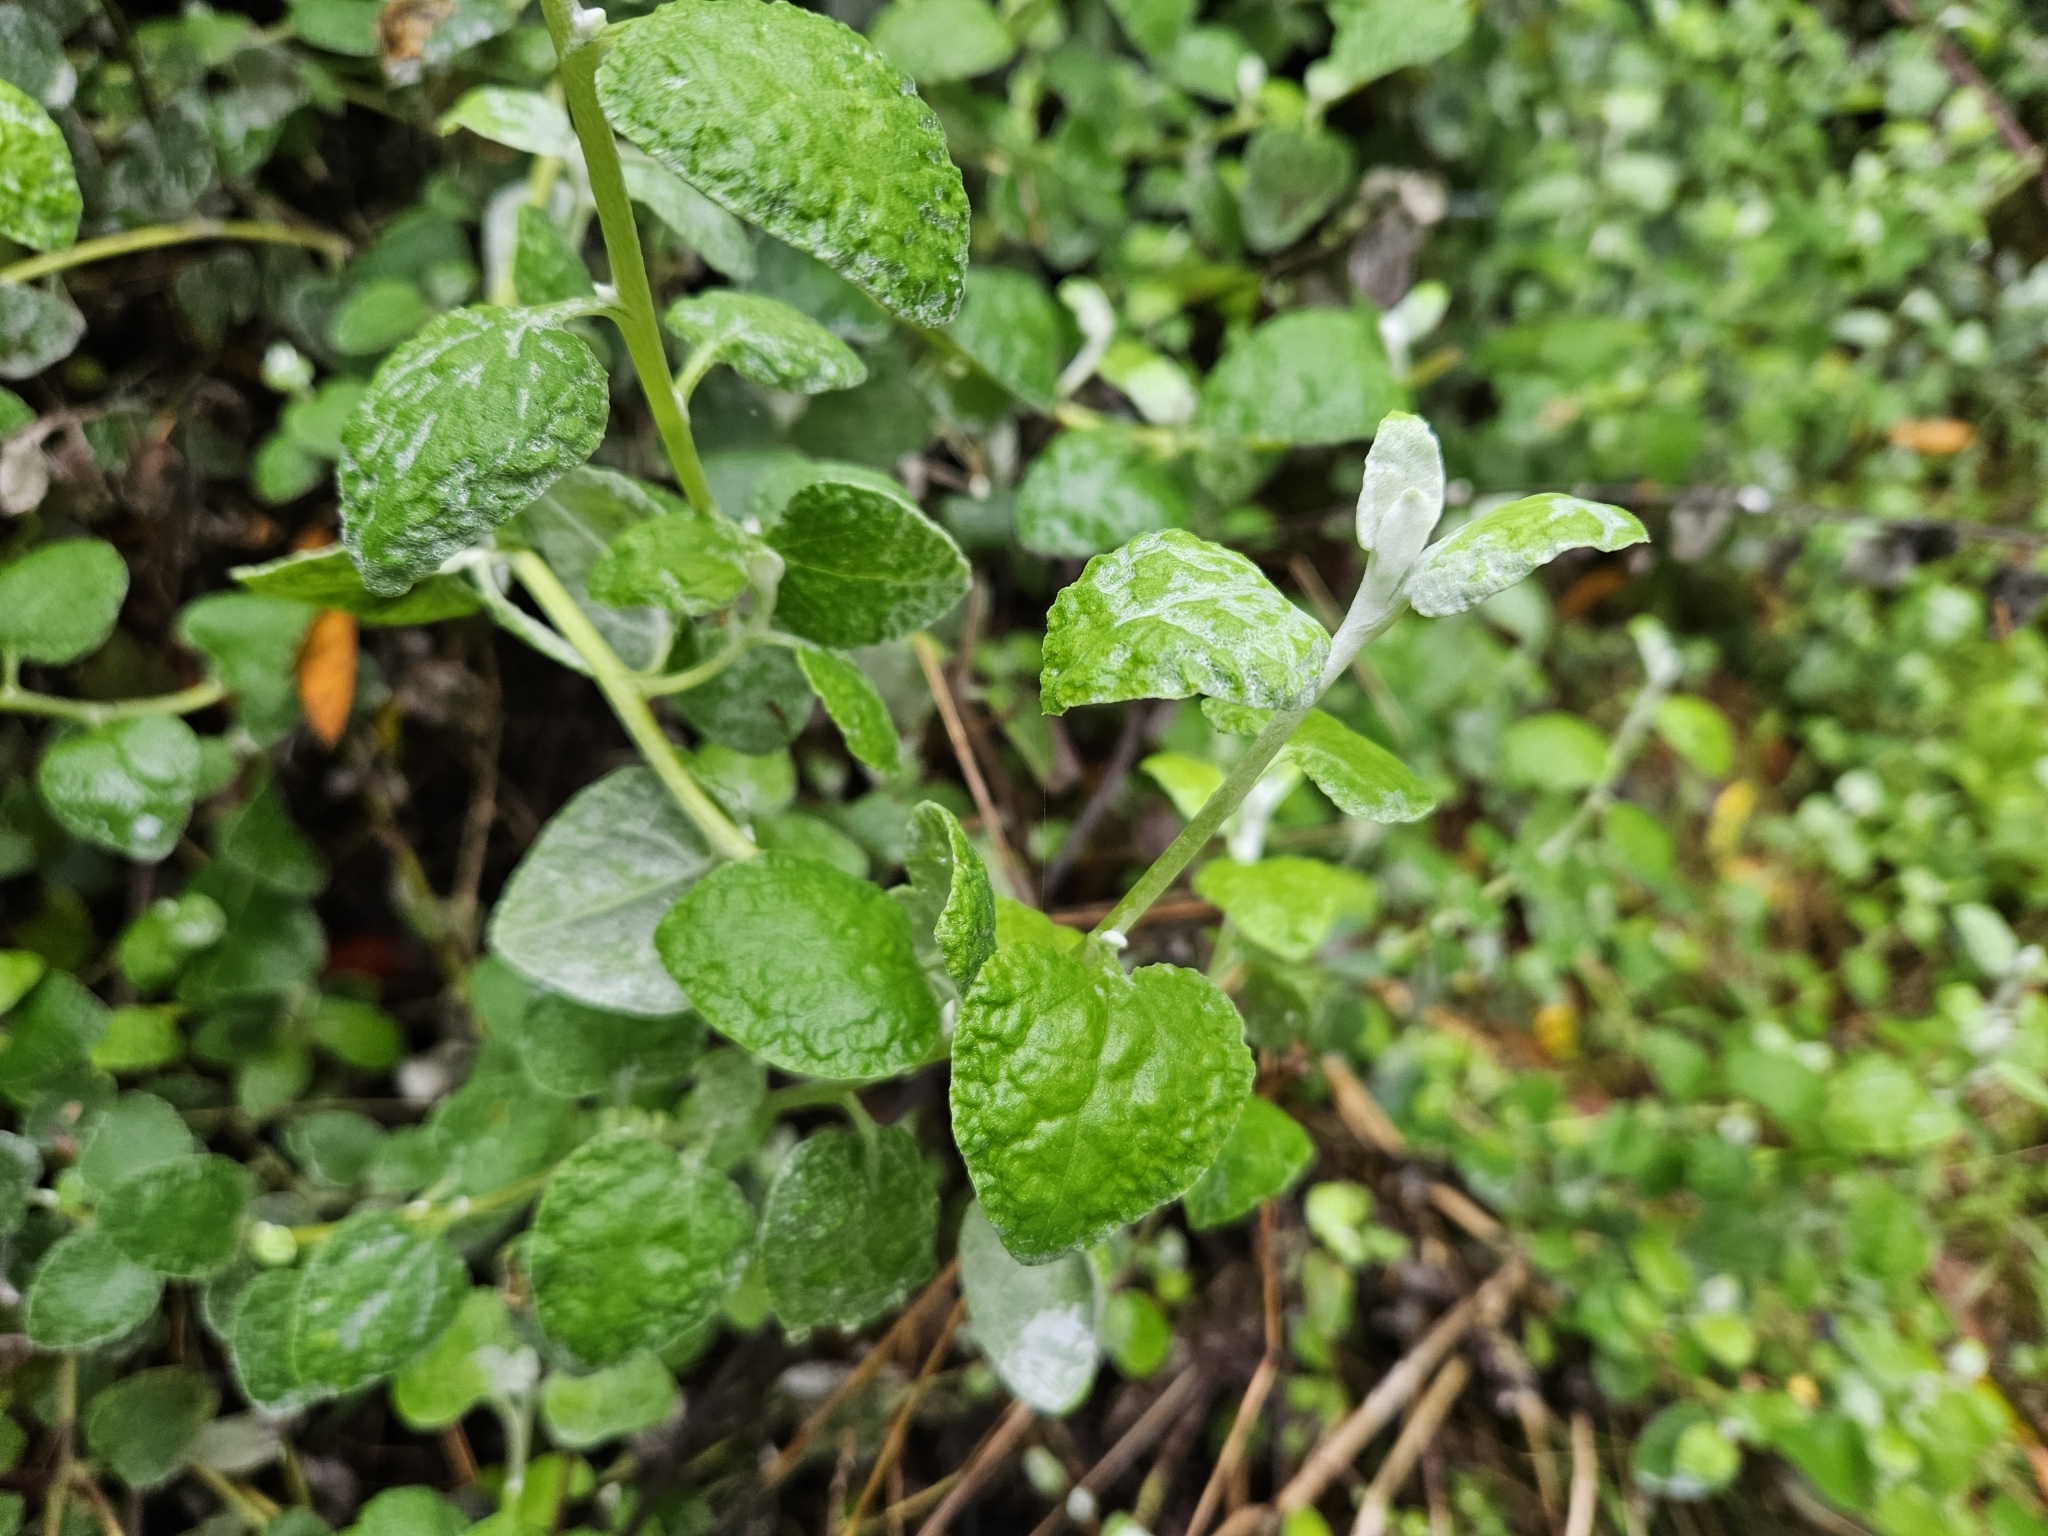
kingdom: Plantae
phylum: Tracheophyta
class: Magnoliopsida
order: Asterales
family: Asteraceae
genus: Helichrysum
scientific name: Helichrysum petiolare
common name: Licorice-plant
